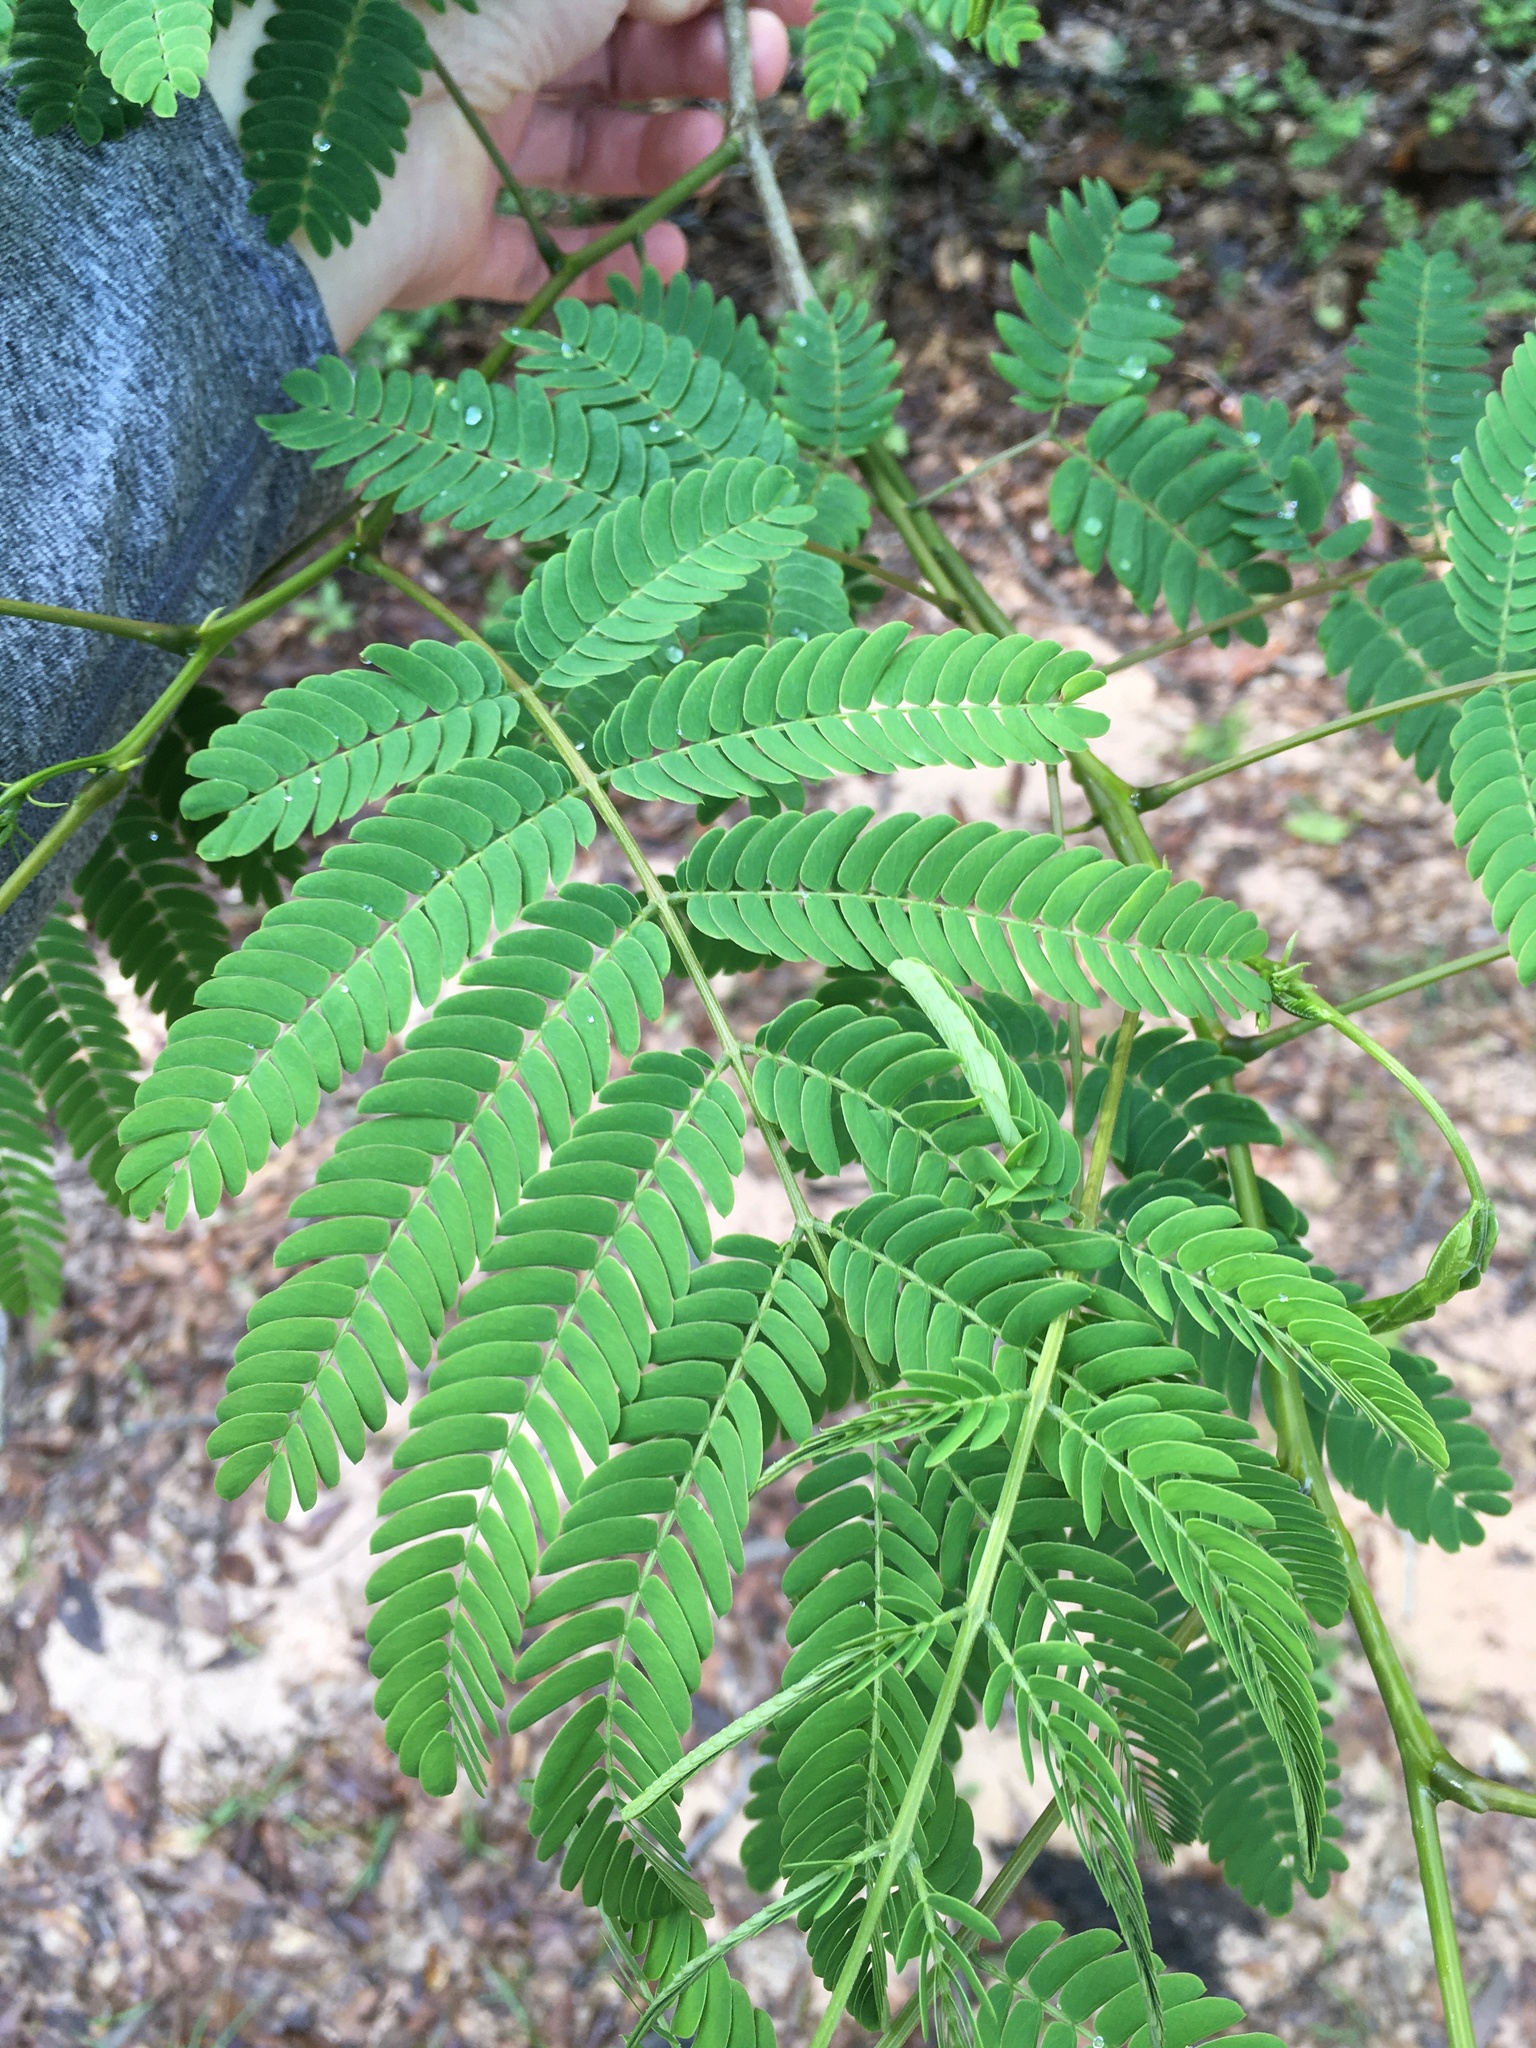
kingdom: Plantae
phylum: Tracheophyta
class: Magnoliopsida
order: Fabales
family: Fabaceae
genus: Albizia
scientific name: Albizia julibrissin
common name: Silktree
